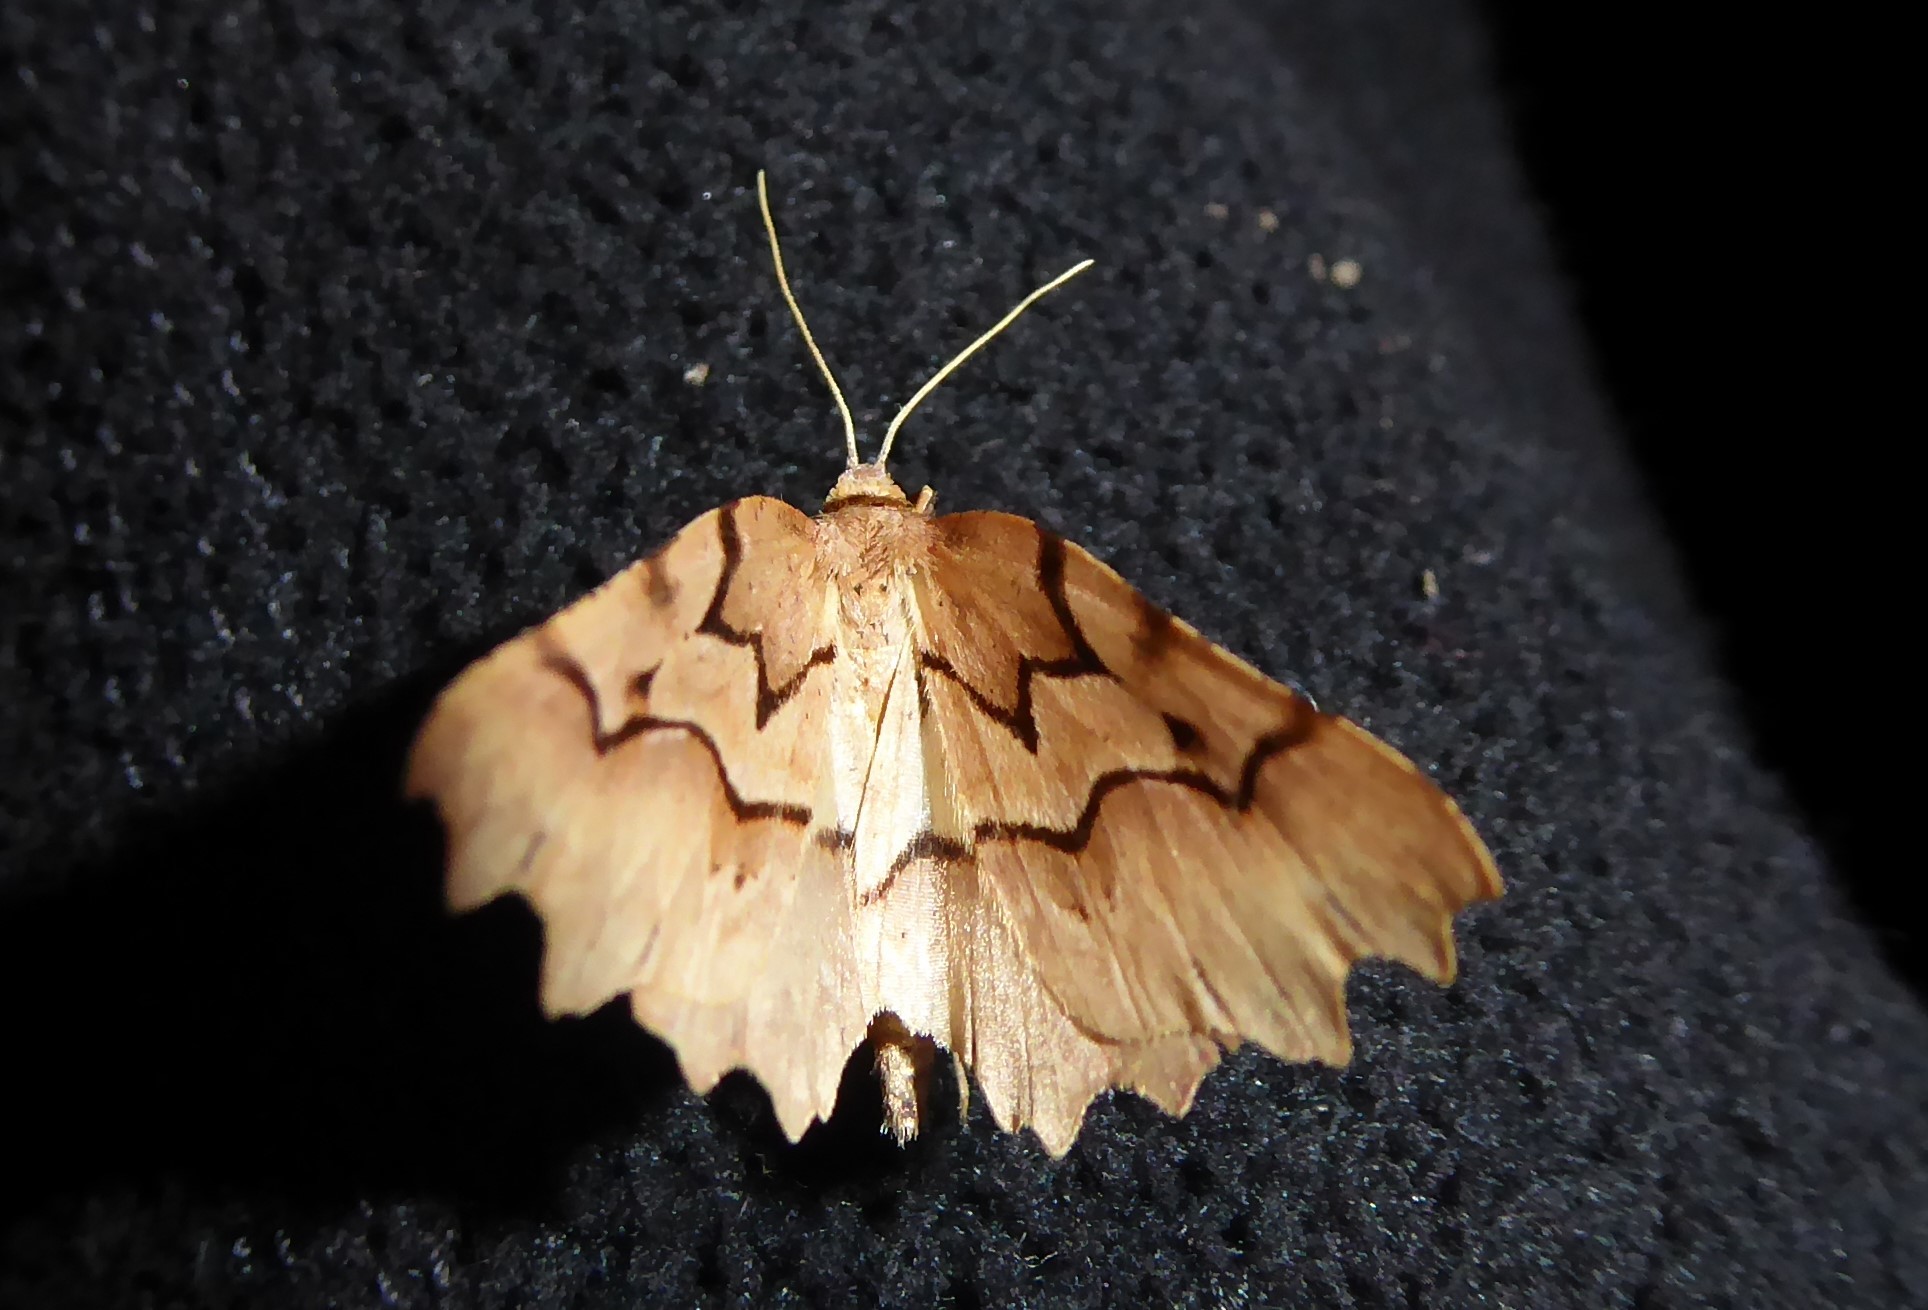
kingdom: Animalia
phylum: Arthropoda
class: Insecta
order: Lepidoptera
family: Geometridae
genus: Ischalis
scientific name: Ischalis fortinata
